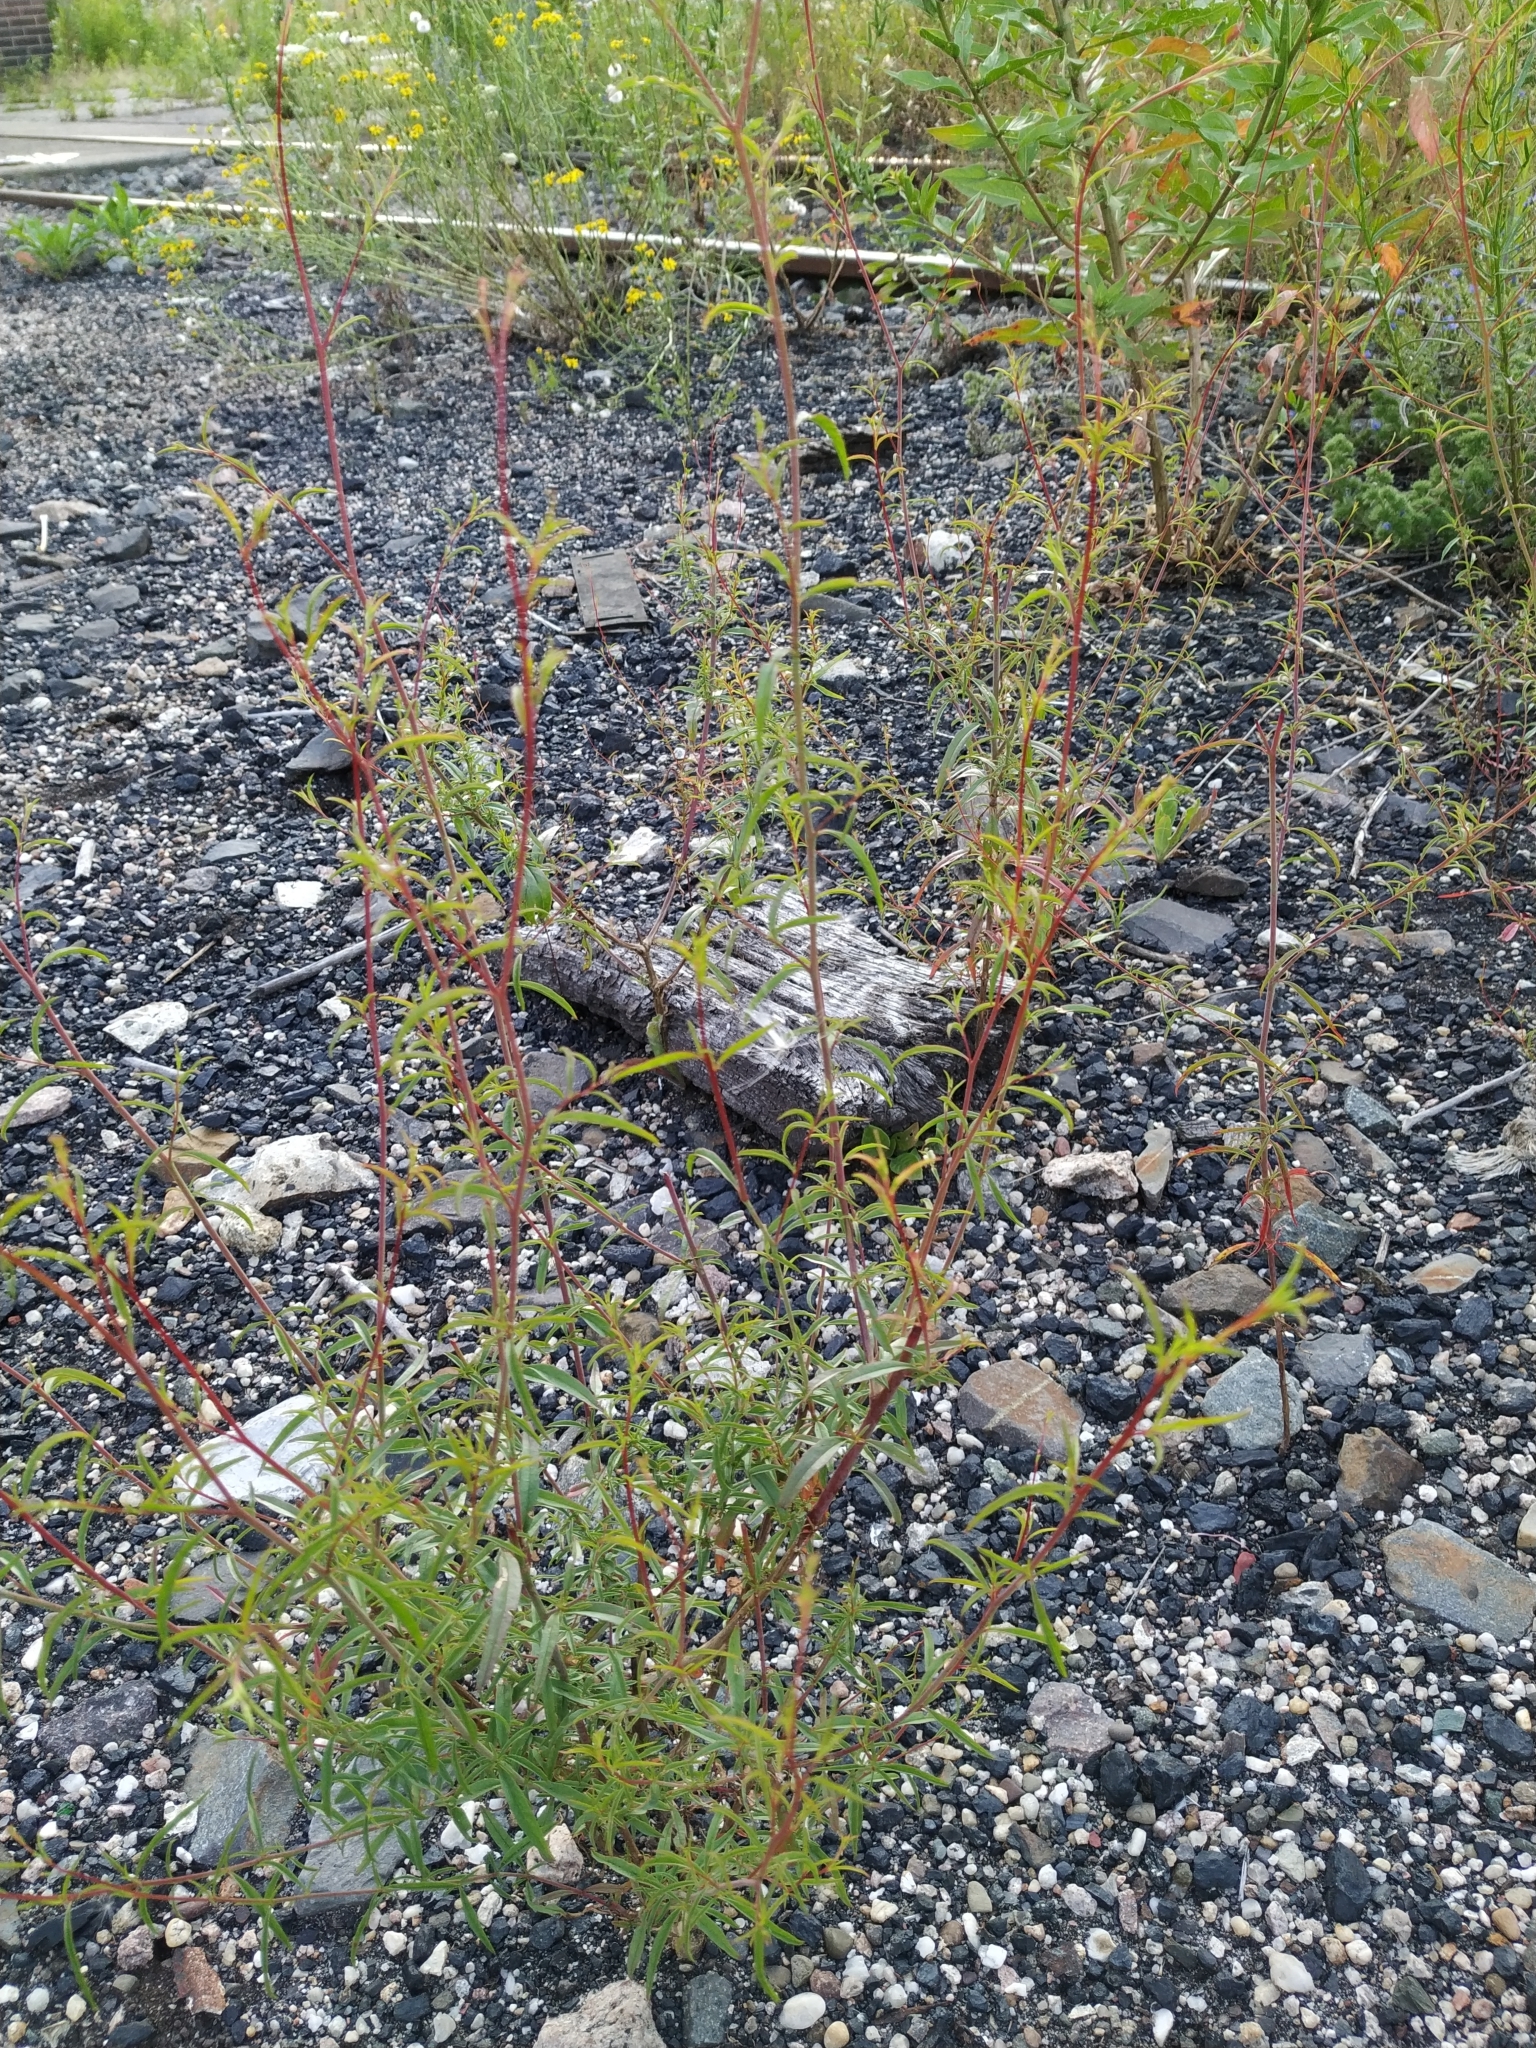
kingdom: Plantae
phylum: Tracheophyta
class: Magnoliopsida
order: Myrtales
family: Onagraceae
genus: Epilobium
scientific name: Epilobium brachycarpum
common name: Annual willowherb
